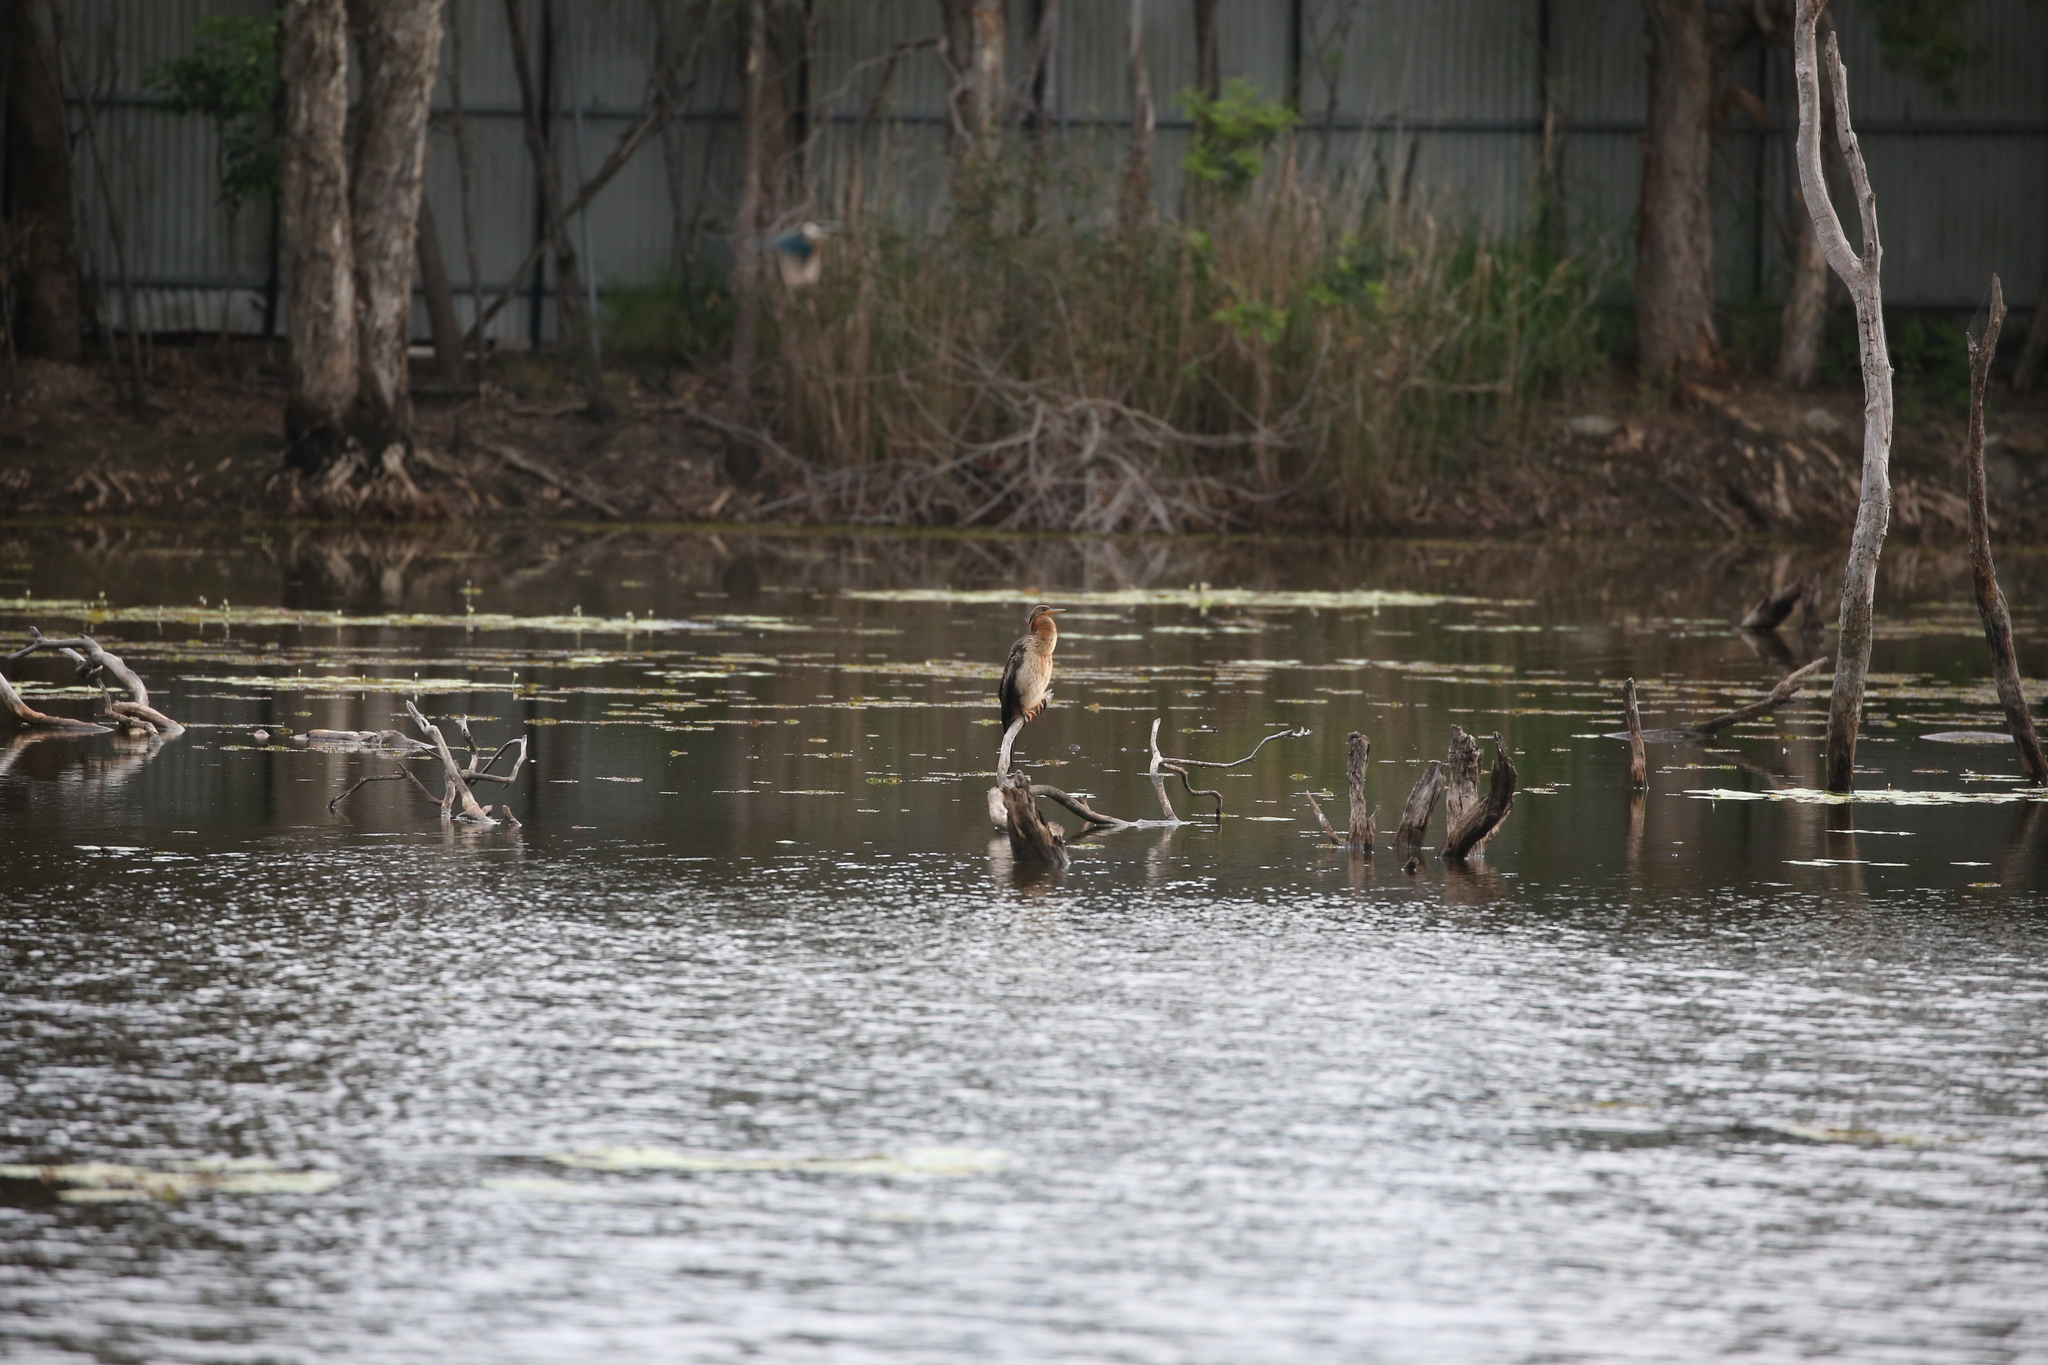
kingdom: Animalia
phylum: Chordata
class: Aves
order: Suliformes
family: Anhingidae
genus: Anhinga
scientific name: Anhinga novaehollandiae
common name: Australasian darter
